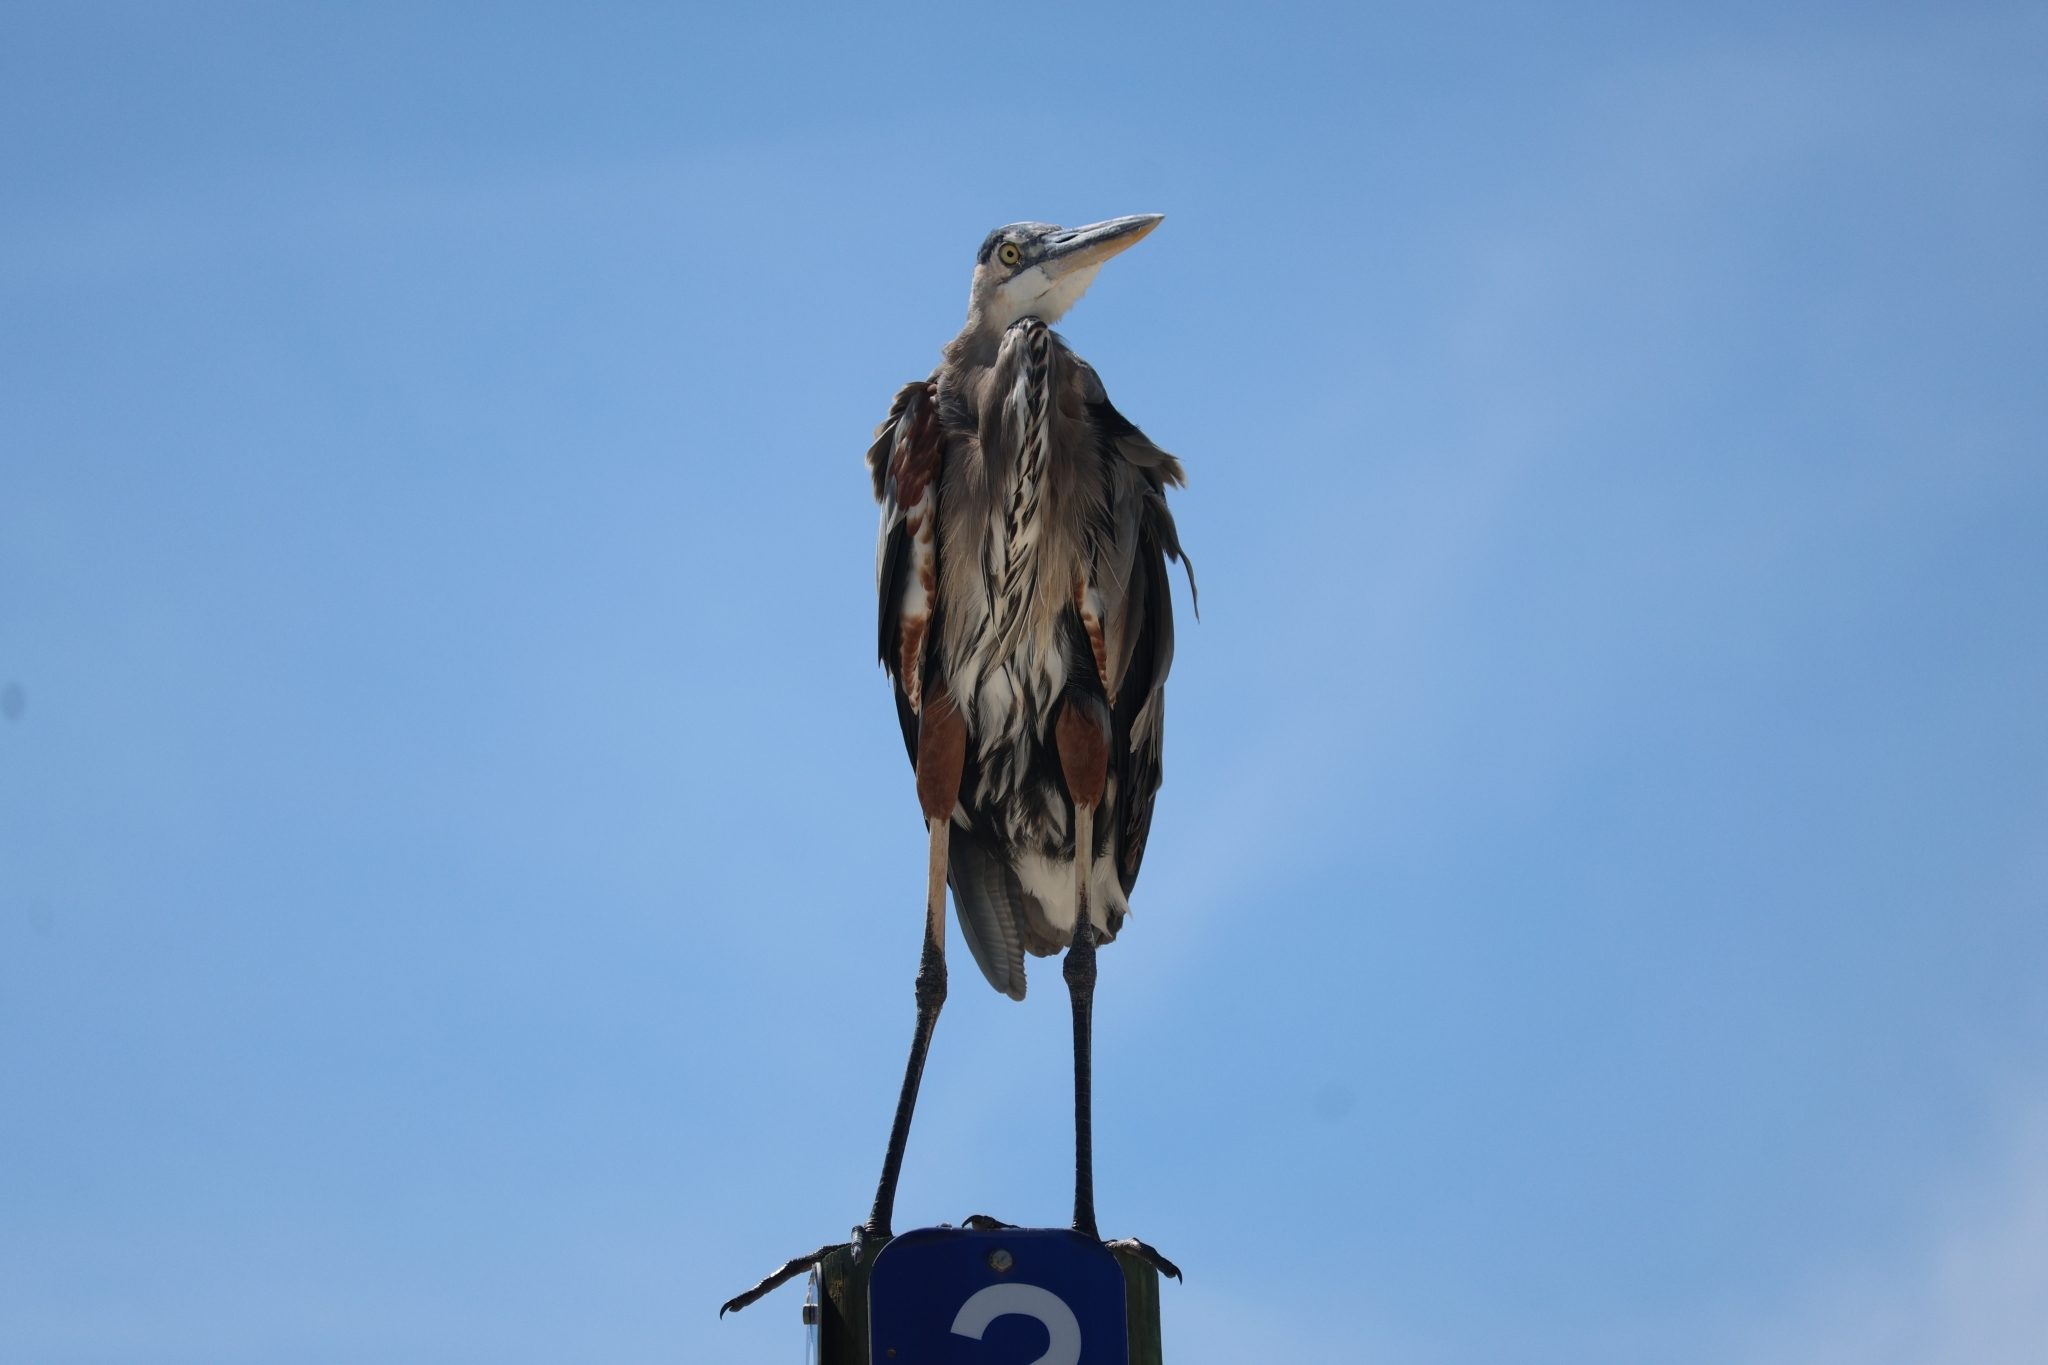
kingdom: Animalia
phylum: Chordata
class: Aves
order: Pelecaniformes
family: Ardeidae
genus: Ardea
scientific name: Ardea herodias
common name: Great blue heron
